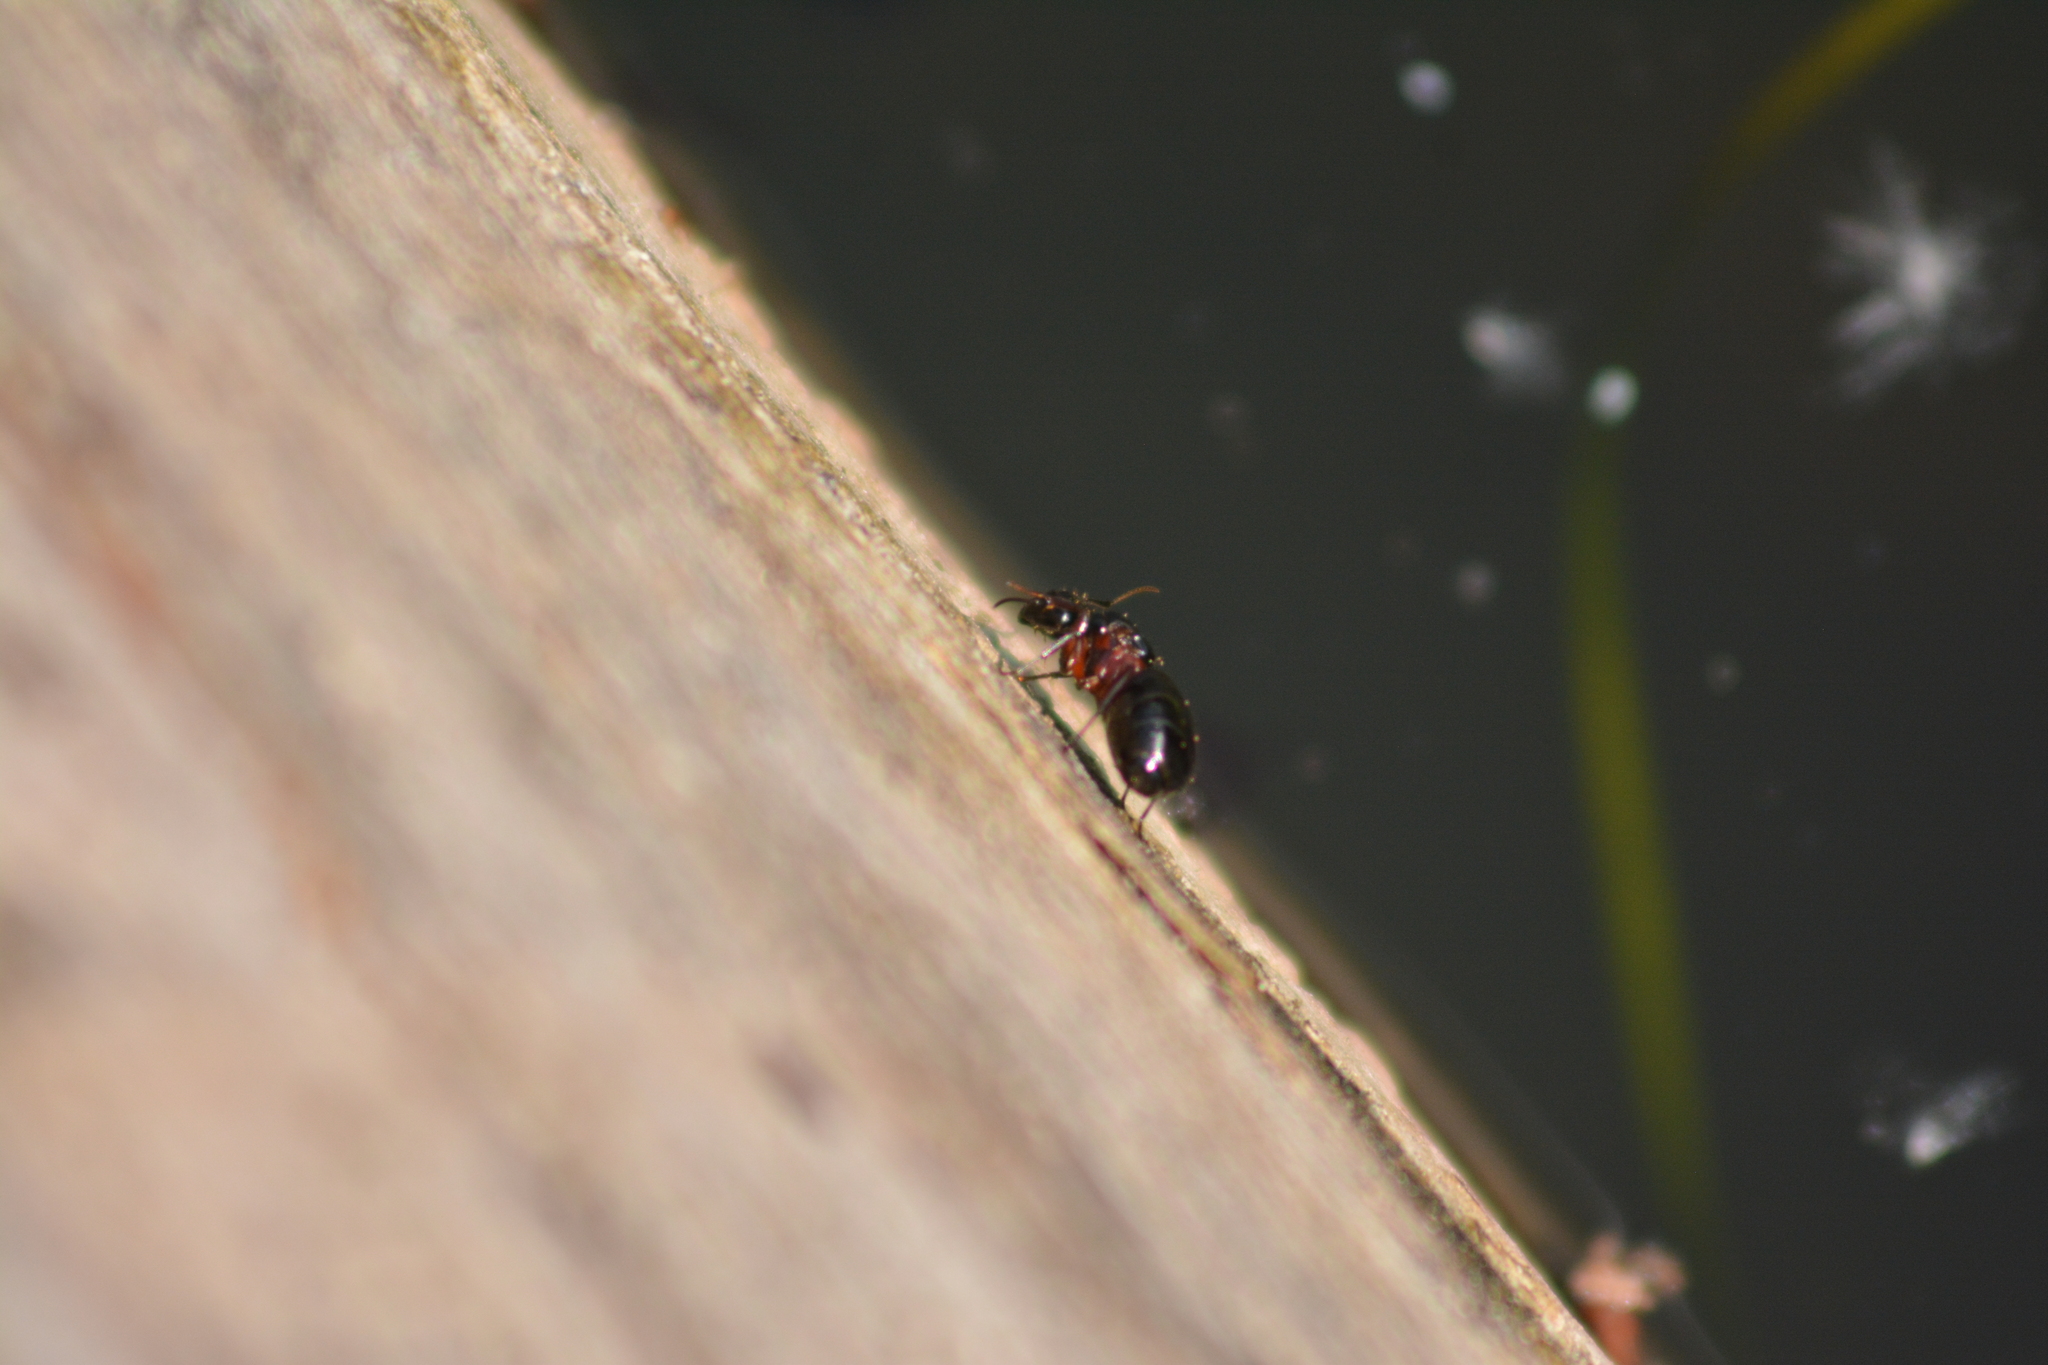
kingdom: Animalia
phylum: Arthropoda
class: Insecta
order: Hymenoptera
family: Formicidae
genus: Camponotus
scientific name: Camponotus herculeanus
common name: Hercules ant
